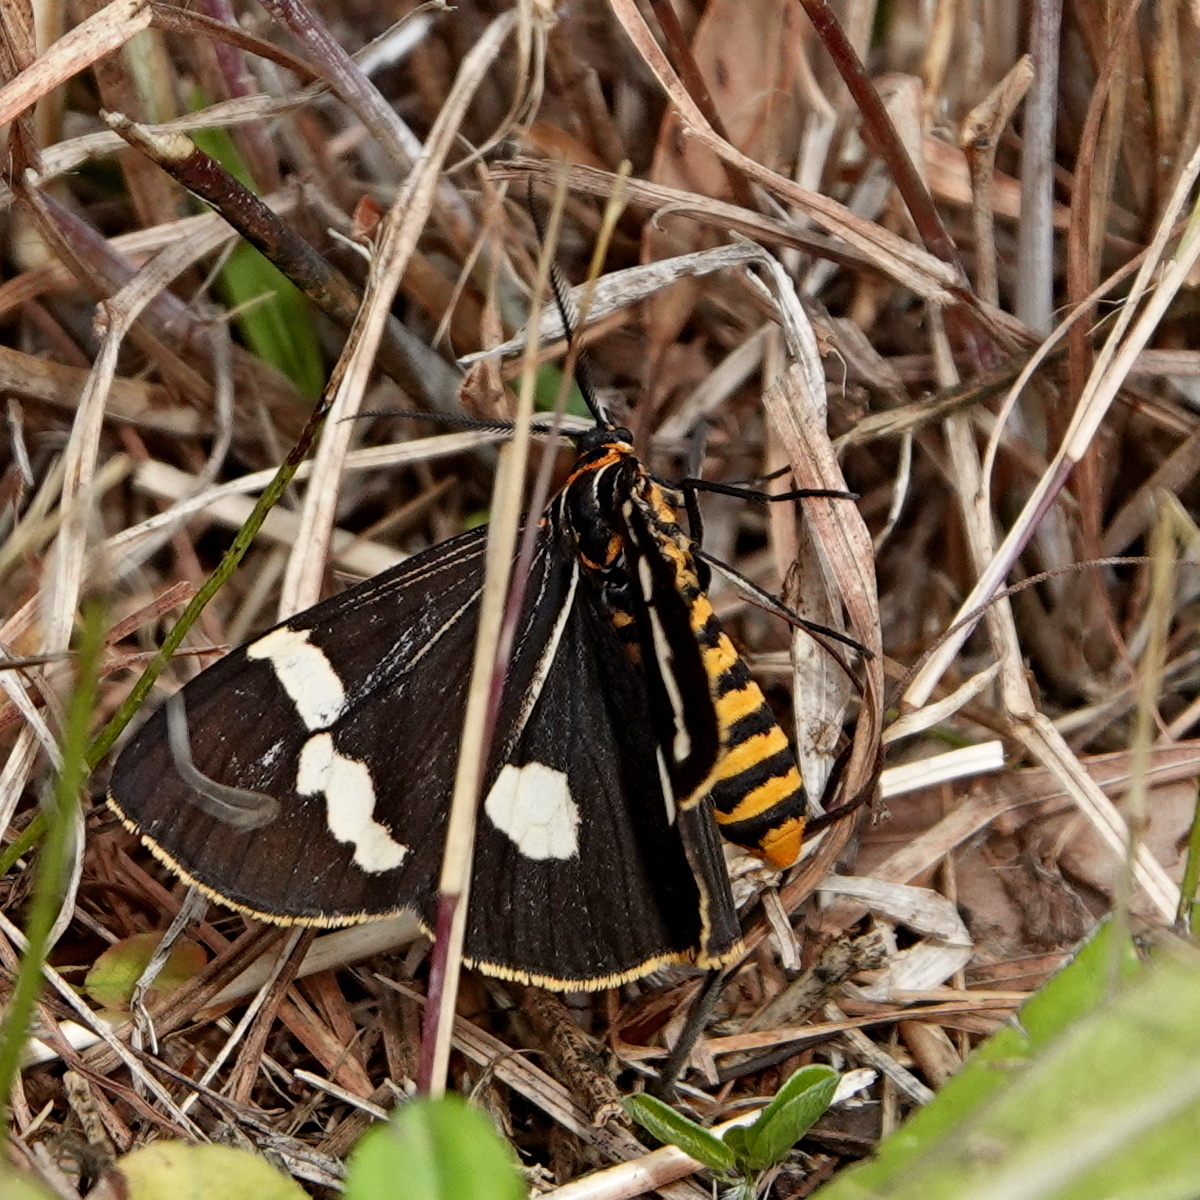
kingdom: Animalia
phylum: Arthropoda
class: Insecta
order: Lepidoptera
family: Erebidae
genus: Nyctemera
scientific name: Nyctemera amicus
